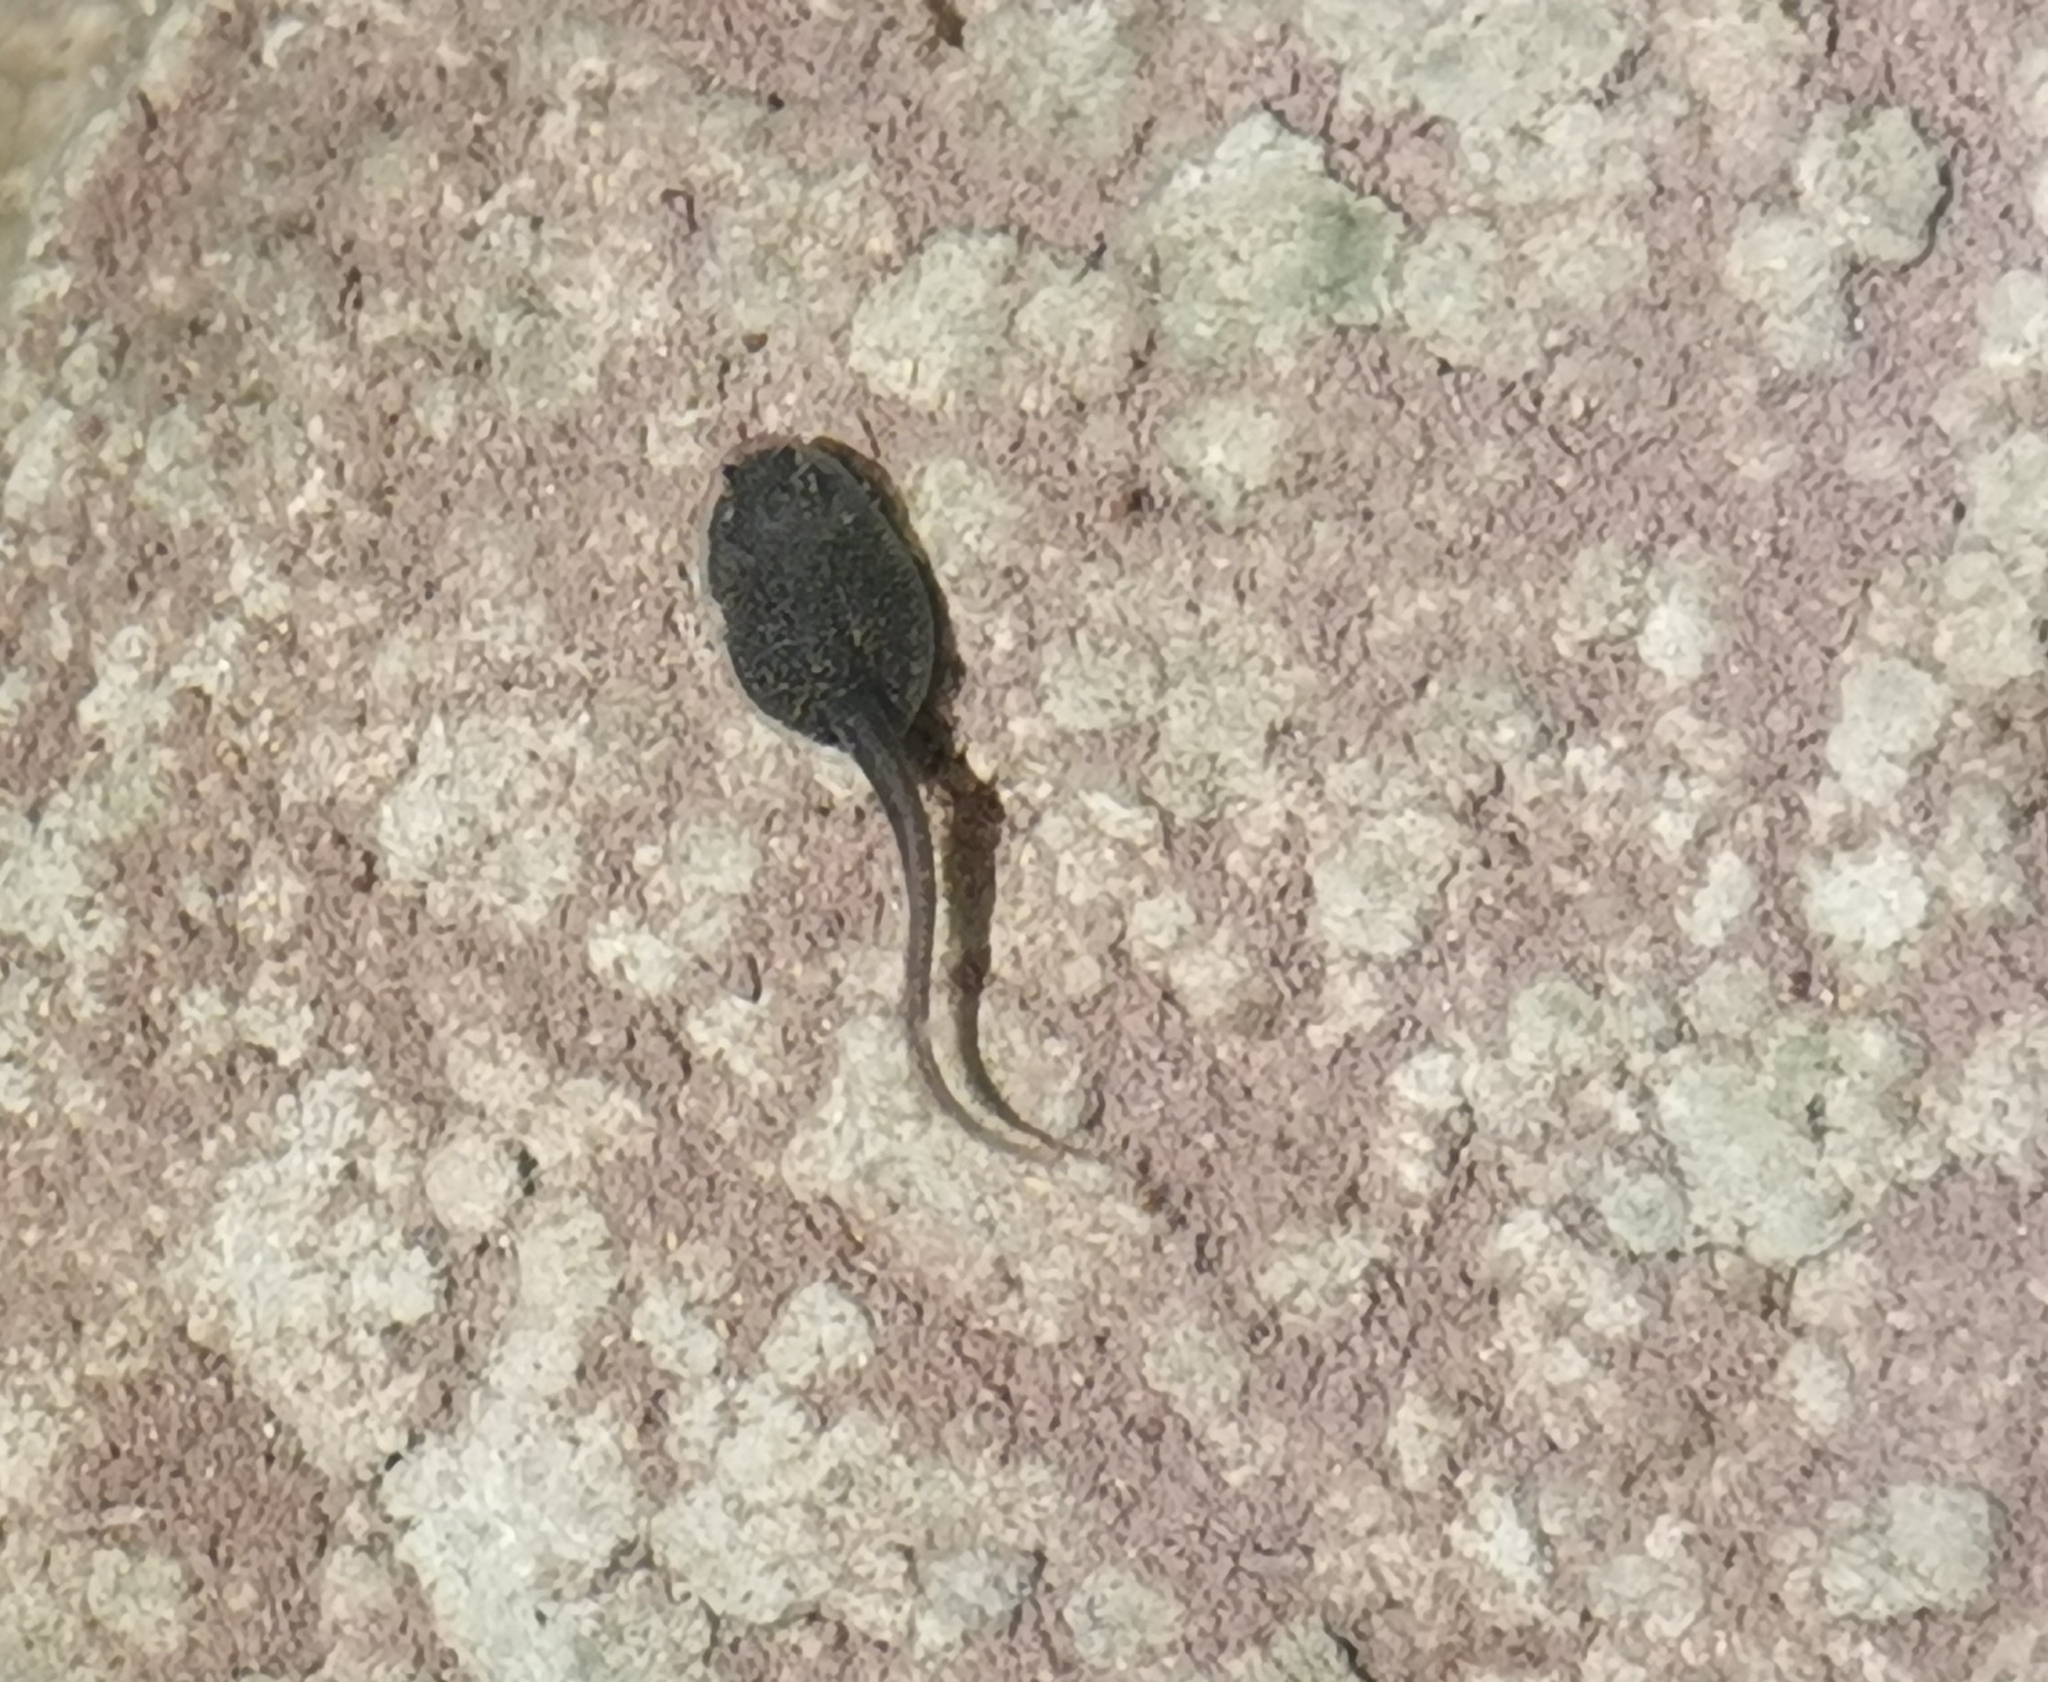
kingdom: Animalia
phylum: Chordata
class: Amphibia
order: Anura
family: Ranidae
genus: Rana
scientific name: Rana italica
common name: Italian stream frog
